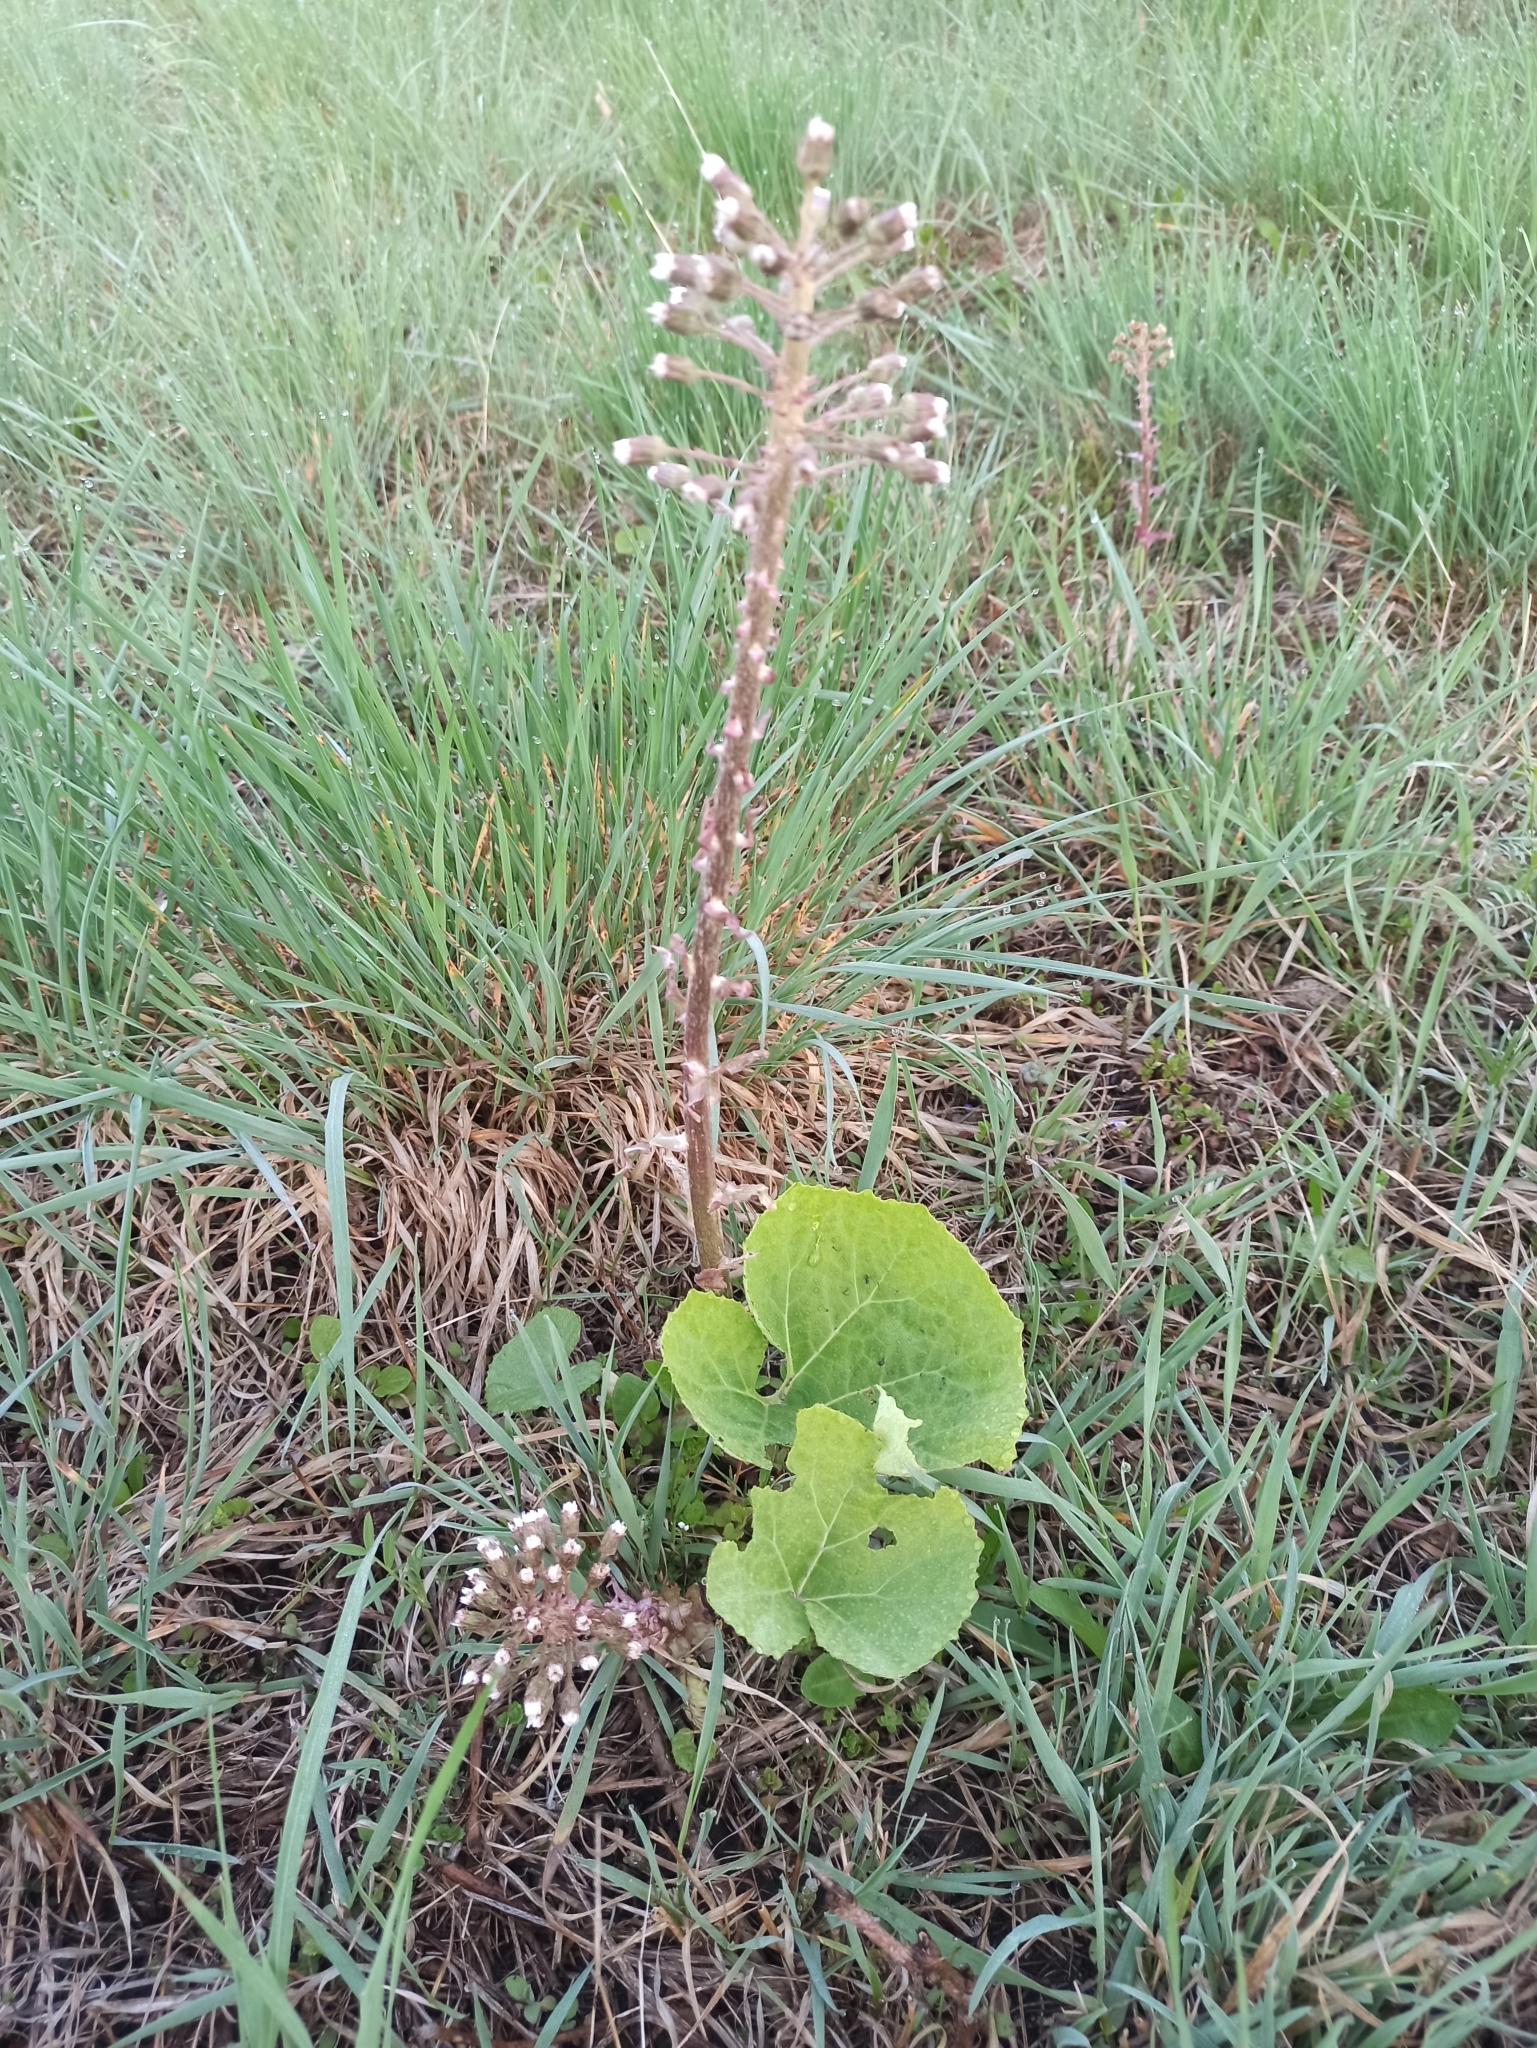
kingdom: Plantae
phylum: Tracheophyta
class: Magnoliopsida
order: Asterales
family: Asteraceae
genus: Petasites
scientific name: Petasites hybridus
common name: Butterbur
